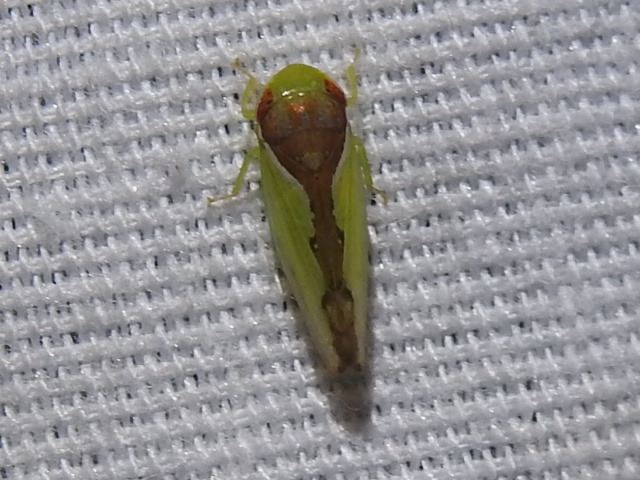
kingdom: Animalia
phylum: Arthropoda
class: Insecta
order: Hemiptera
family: Cicadellidae
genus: Omansobara ing
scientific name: Omansobara ing Omansobara palliolata
